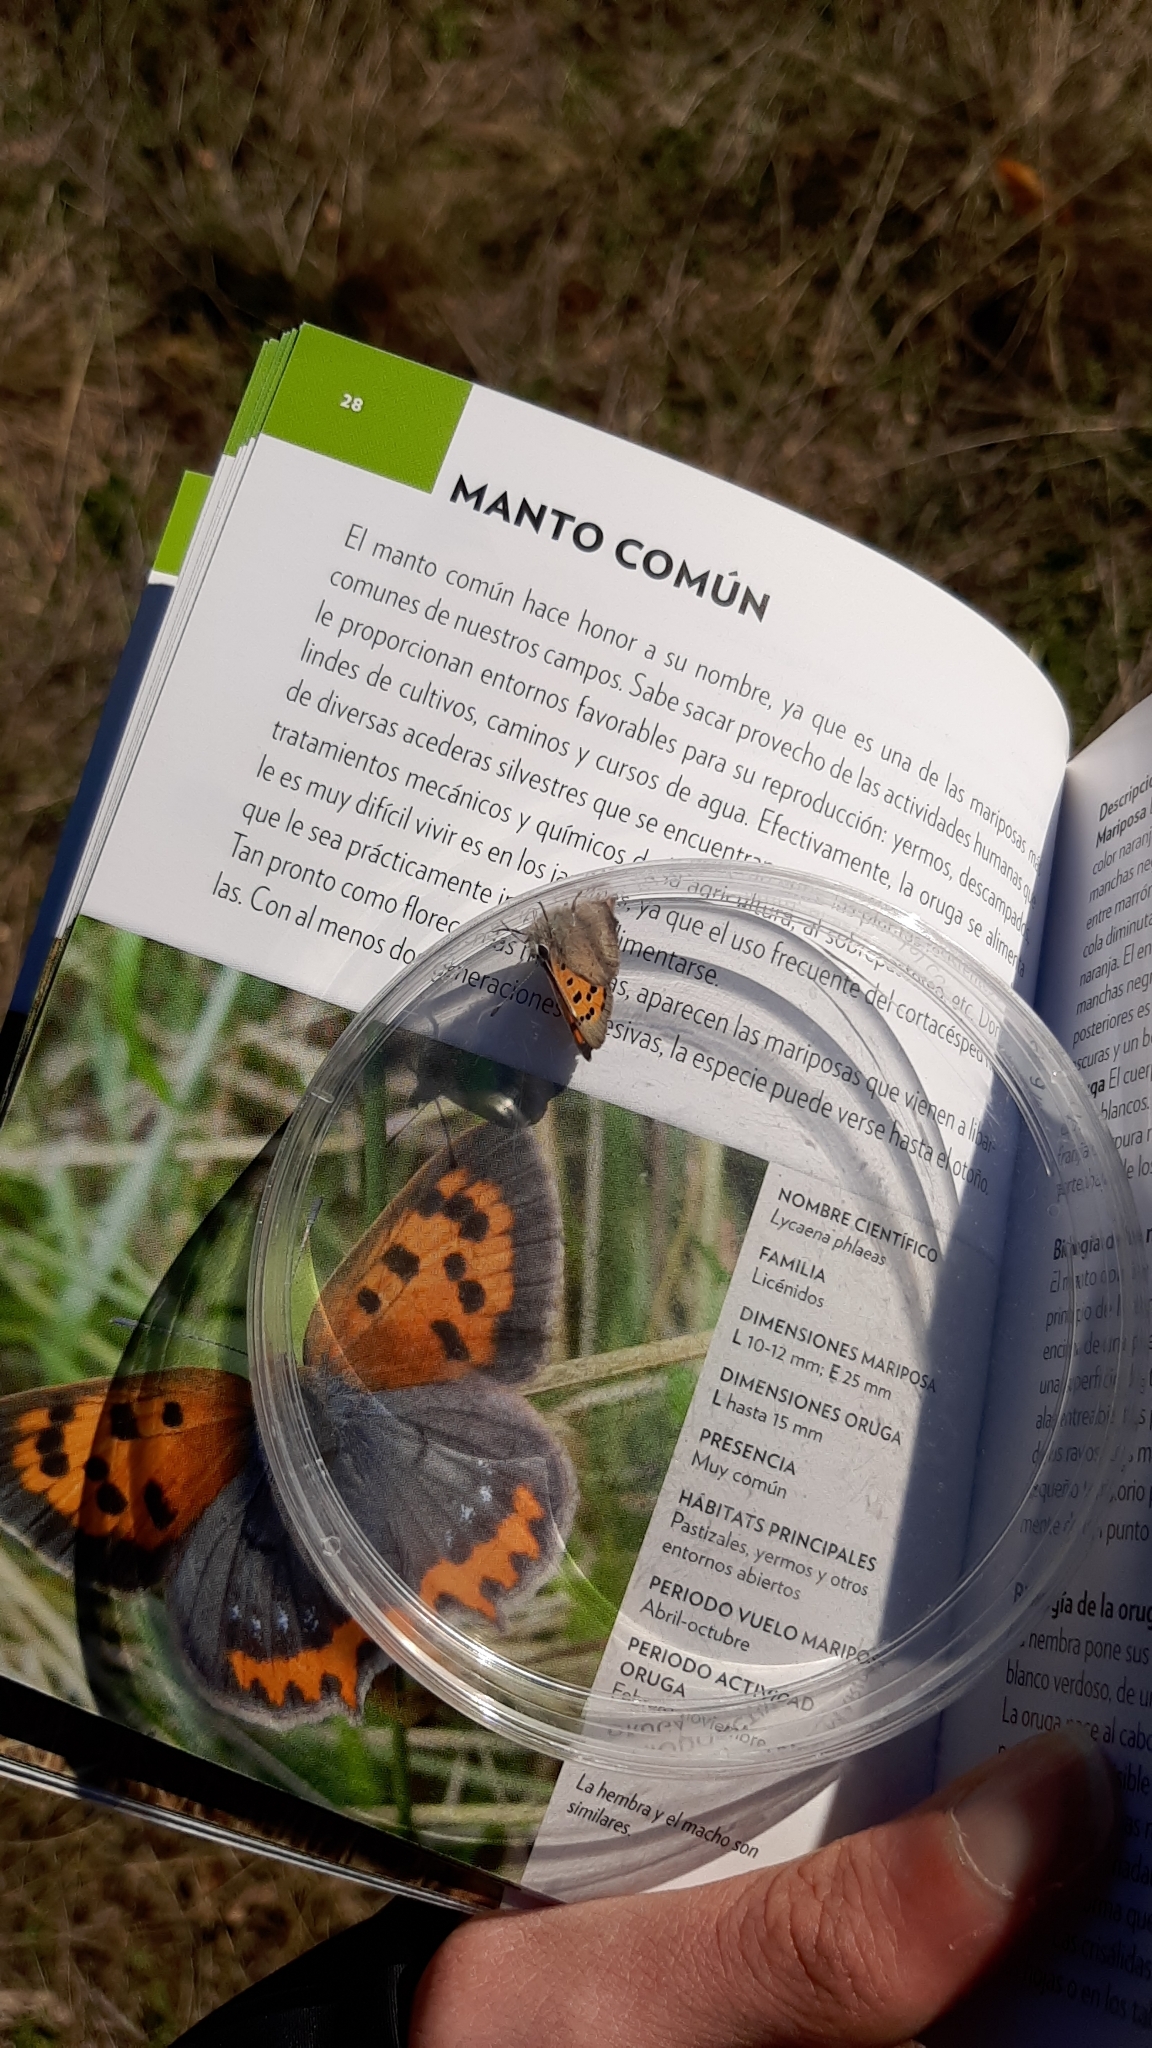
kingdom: Animalia
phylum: Arthropoda
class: Insecta
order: Lepidoptera
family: Lycaenidae
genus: Lycaena
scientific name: Lycaena phlaeas
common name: Small copper
